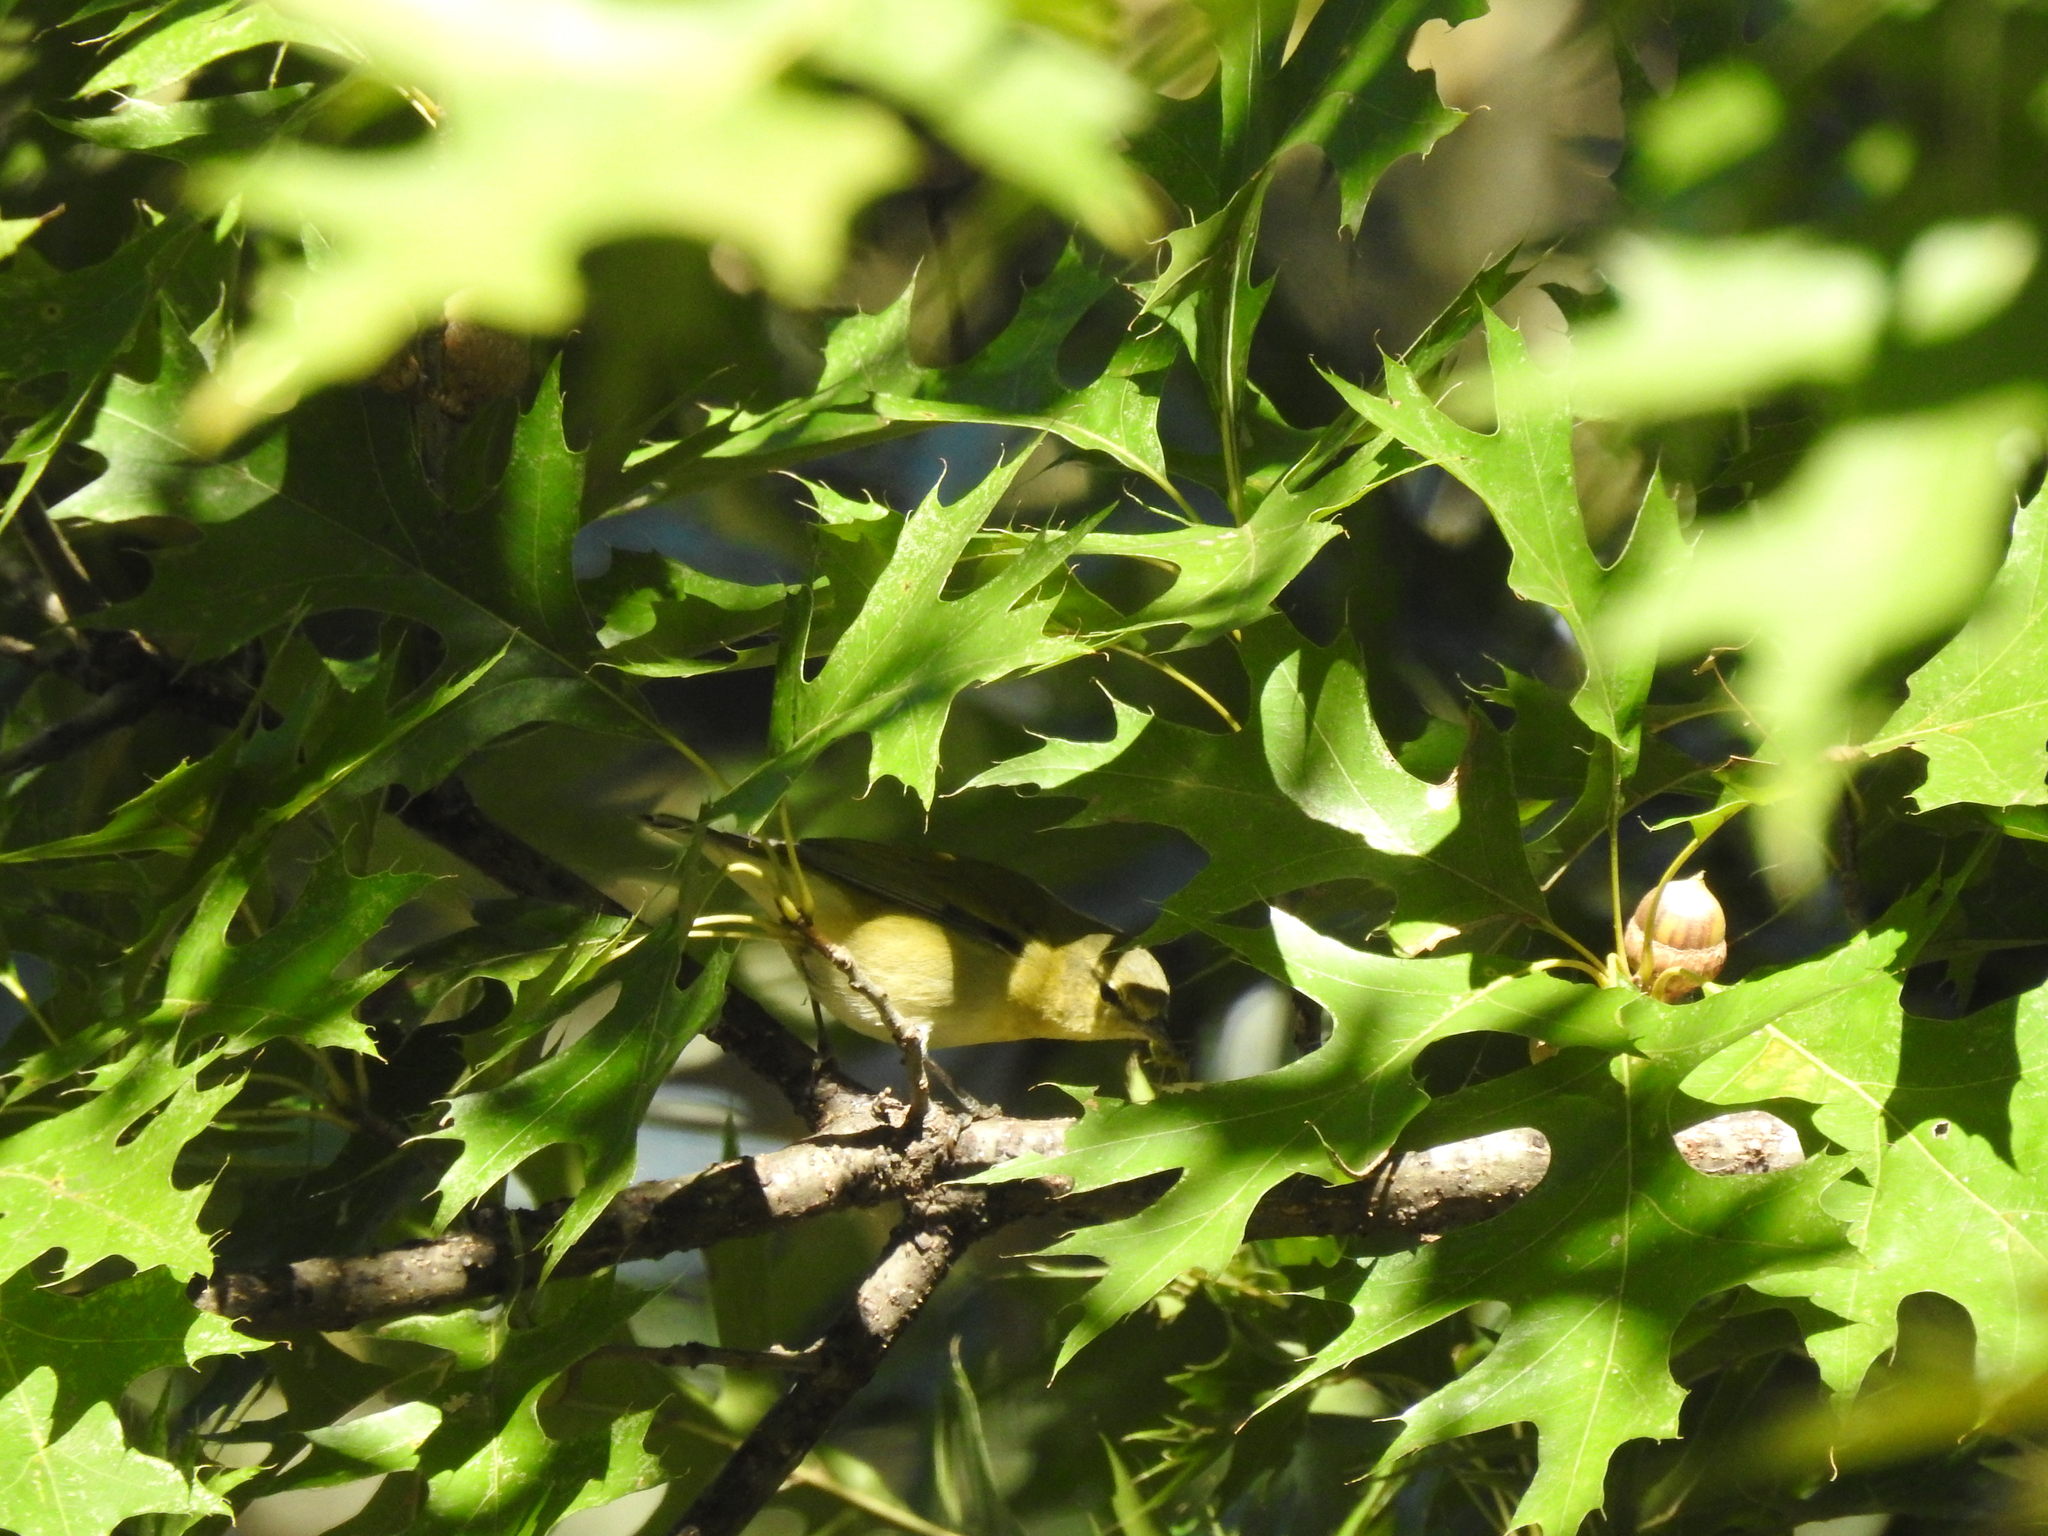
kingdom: Animalia
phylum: Chordata
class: Aves
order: Passeriformes
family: Parulidae
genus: Leiothlypis
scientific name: Leiothlypis peregrina
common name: Tennessee warbler
